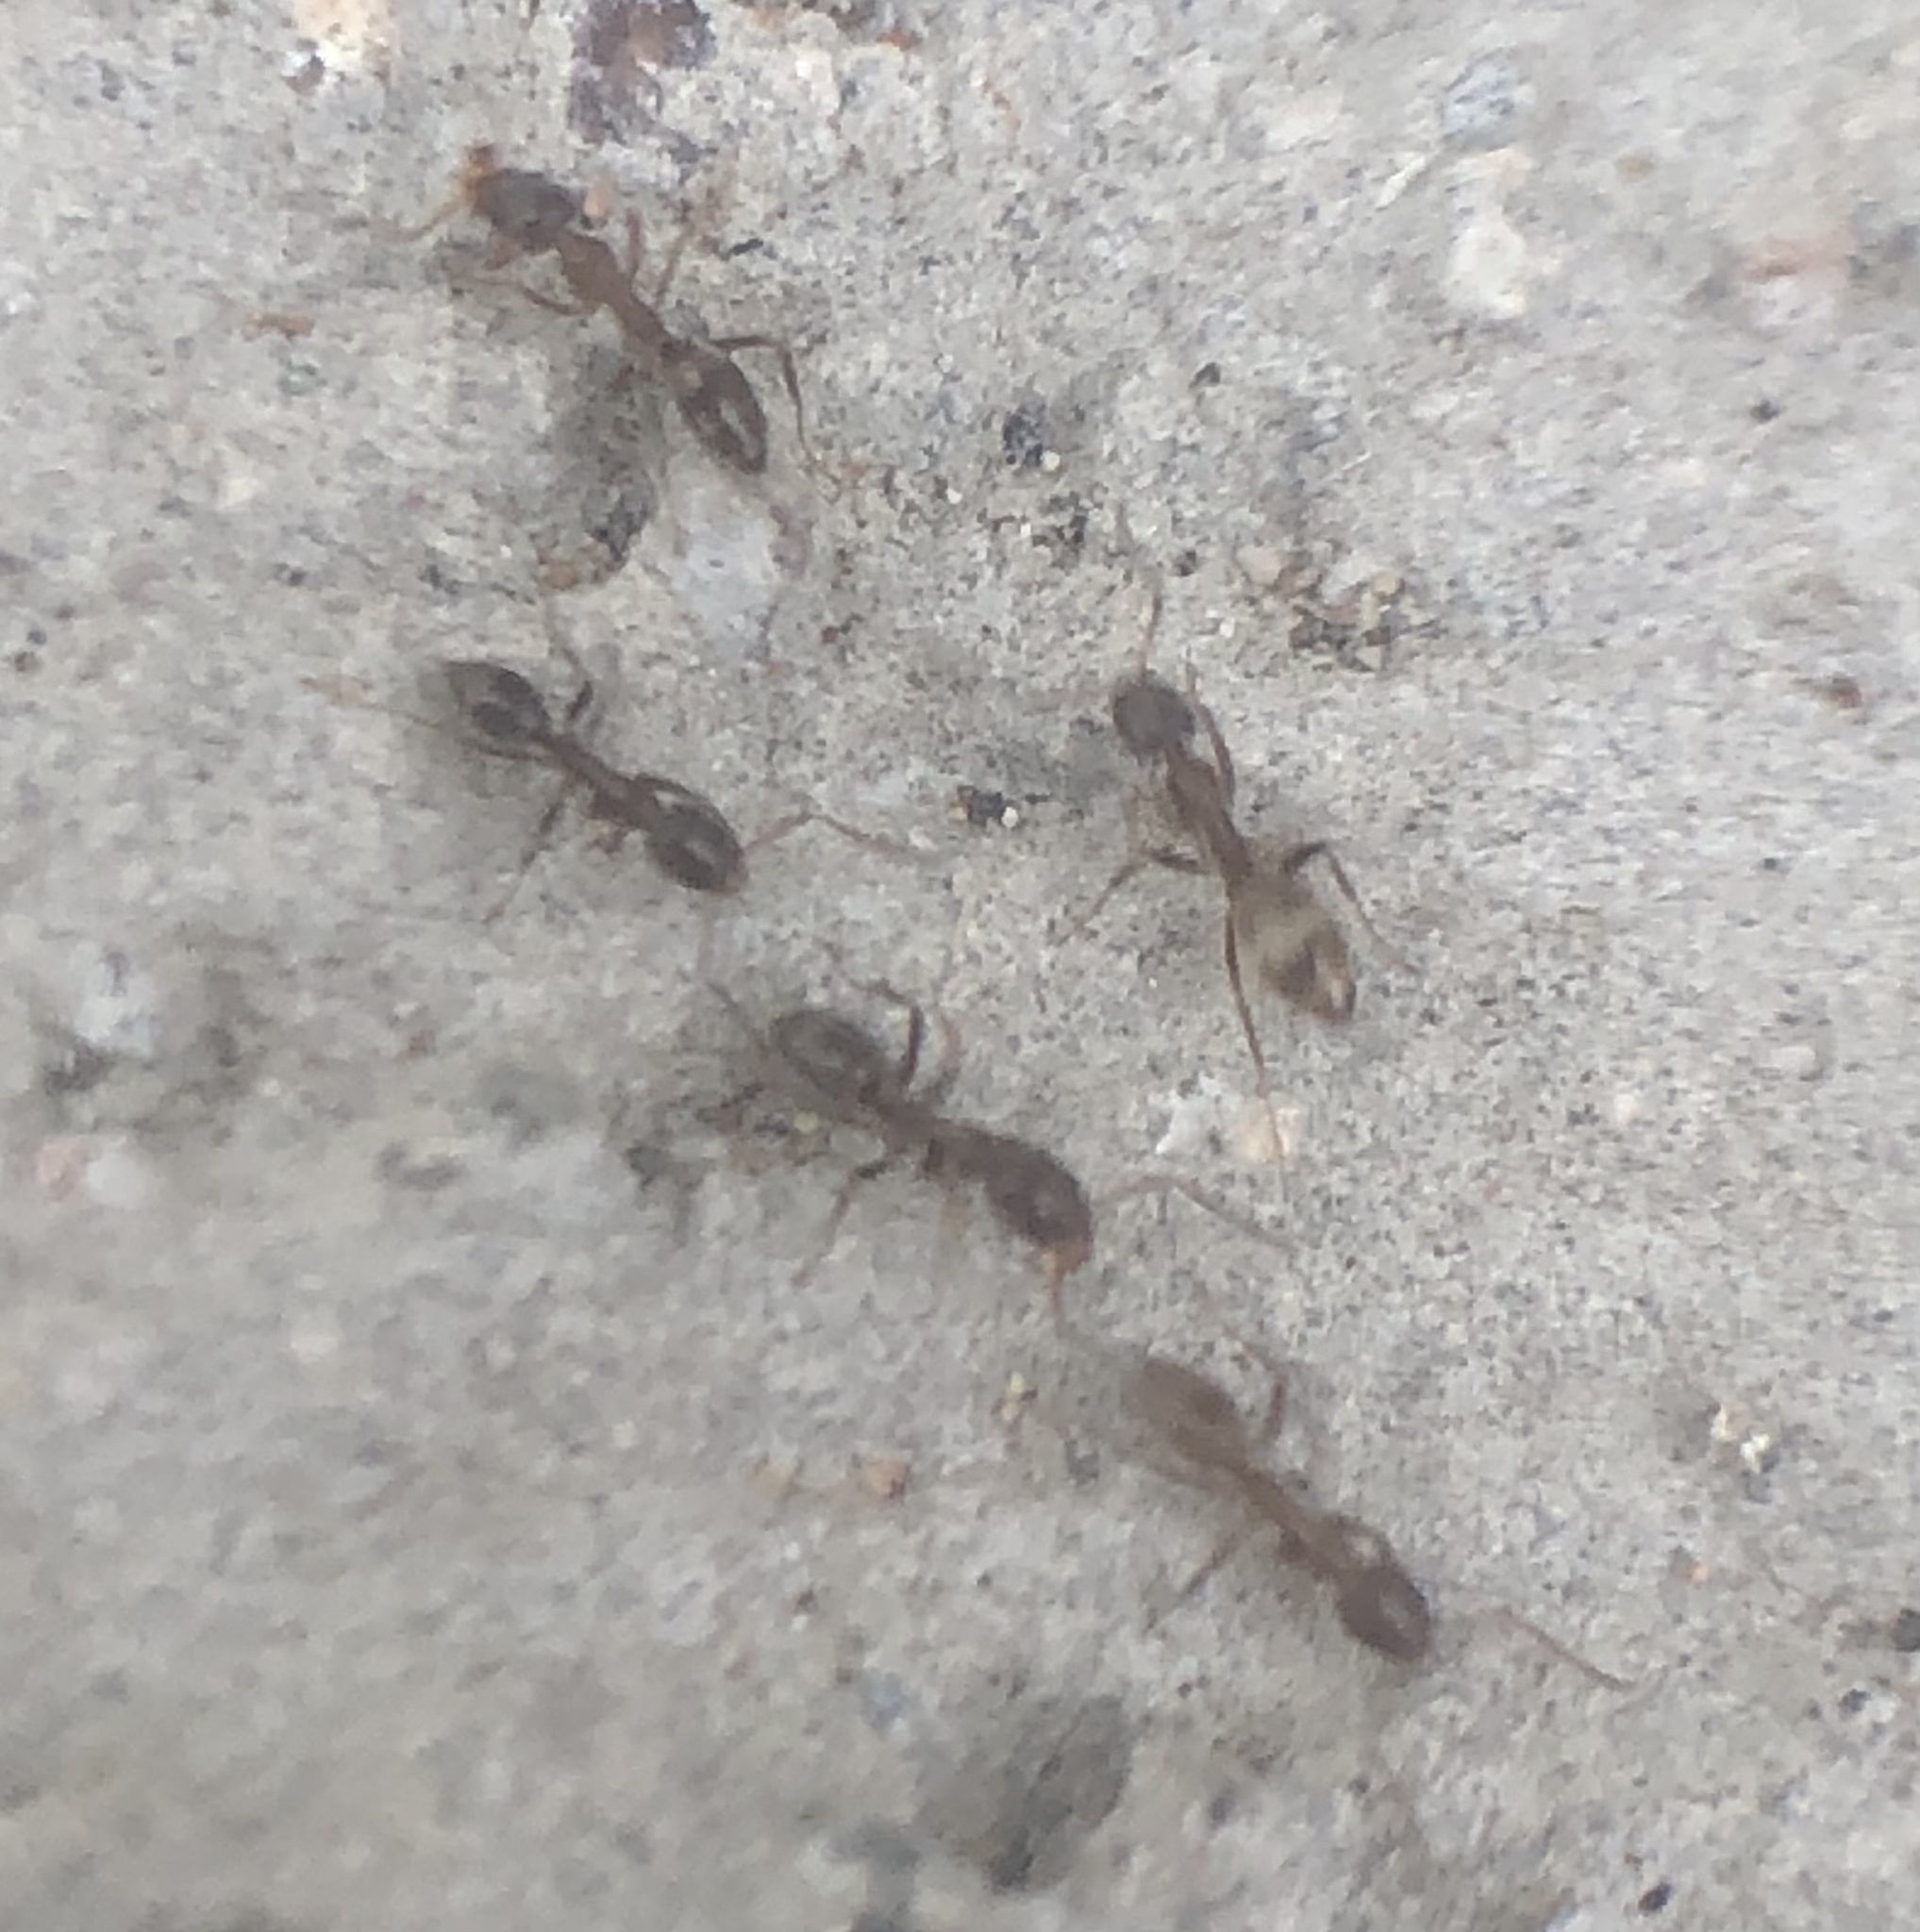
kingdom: Animalia
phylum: Arthropoda
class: Insecta
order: Hymenoptera
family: Formicidae
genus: Linepithema
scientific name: Linepithema humile
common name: Argentine ant
